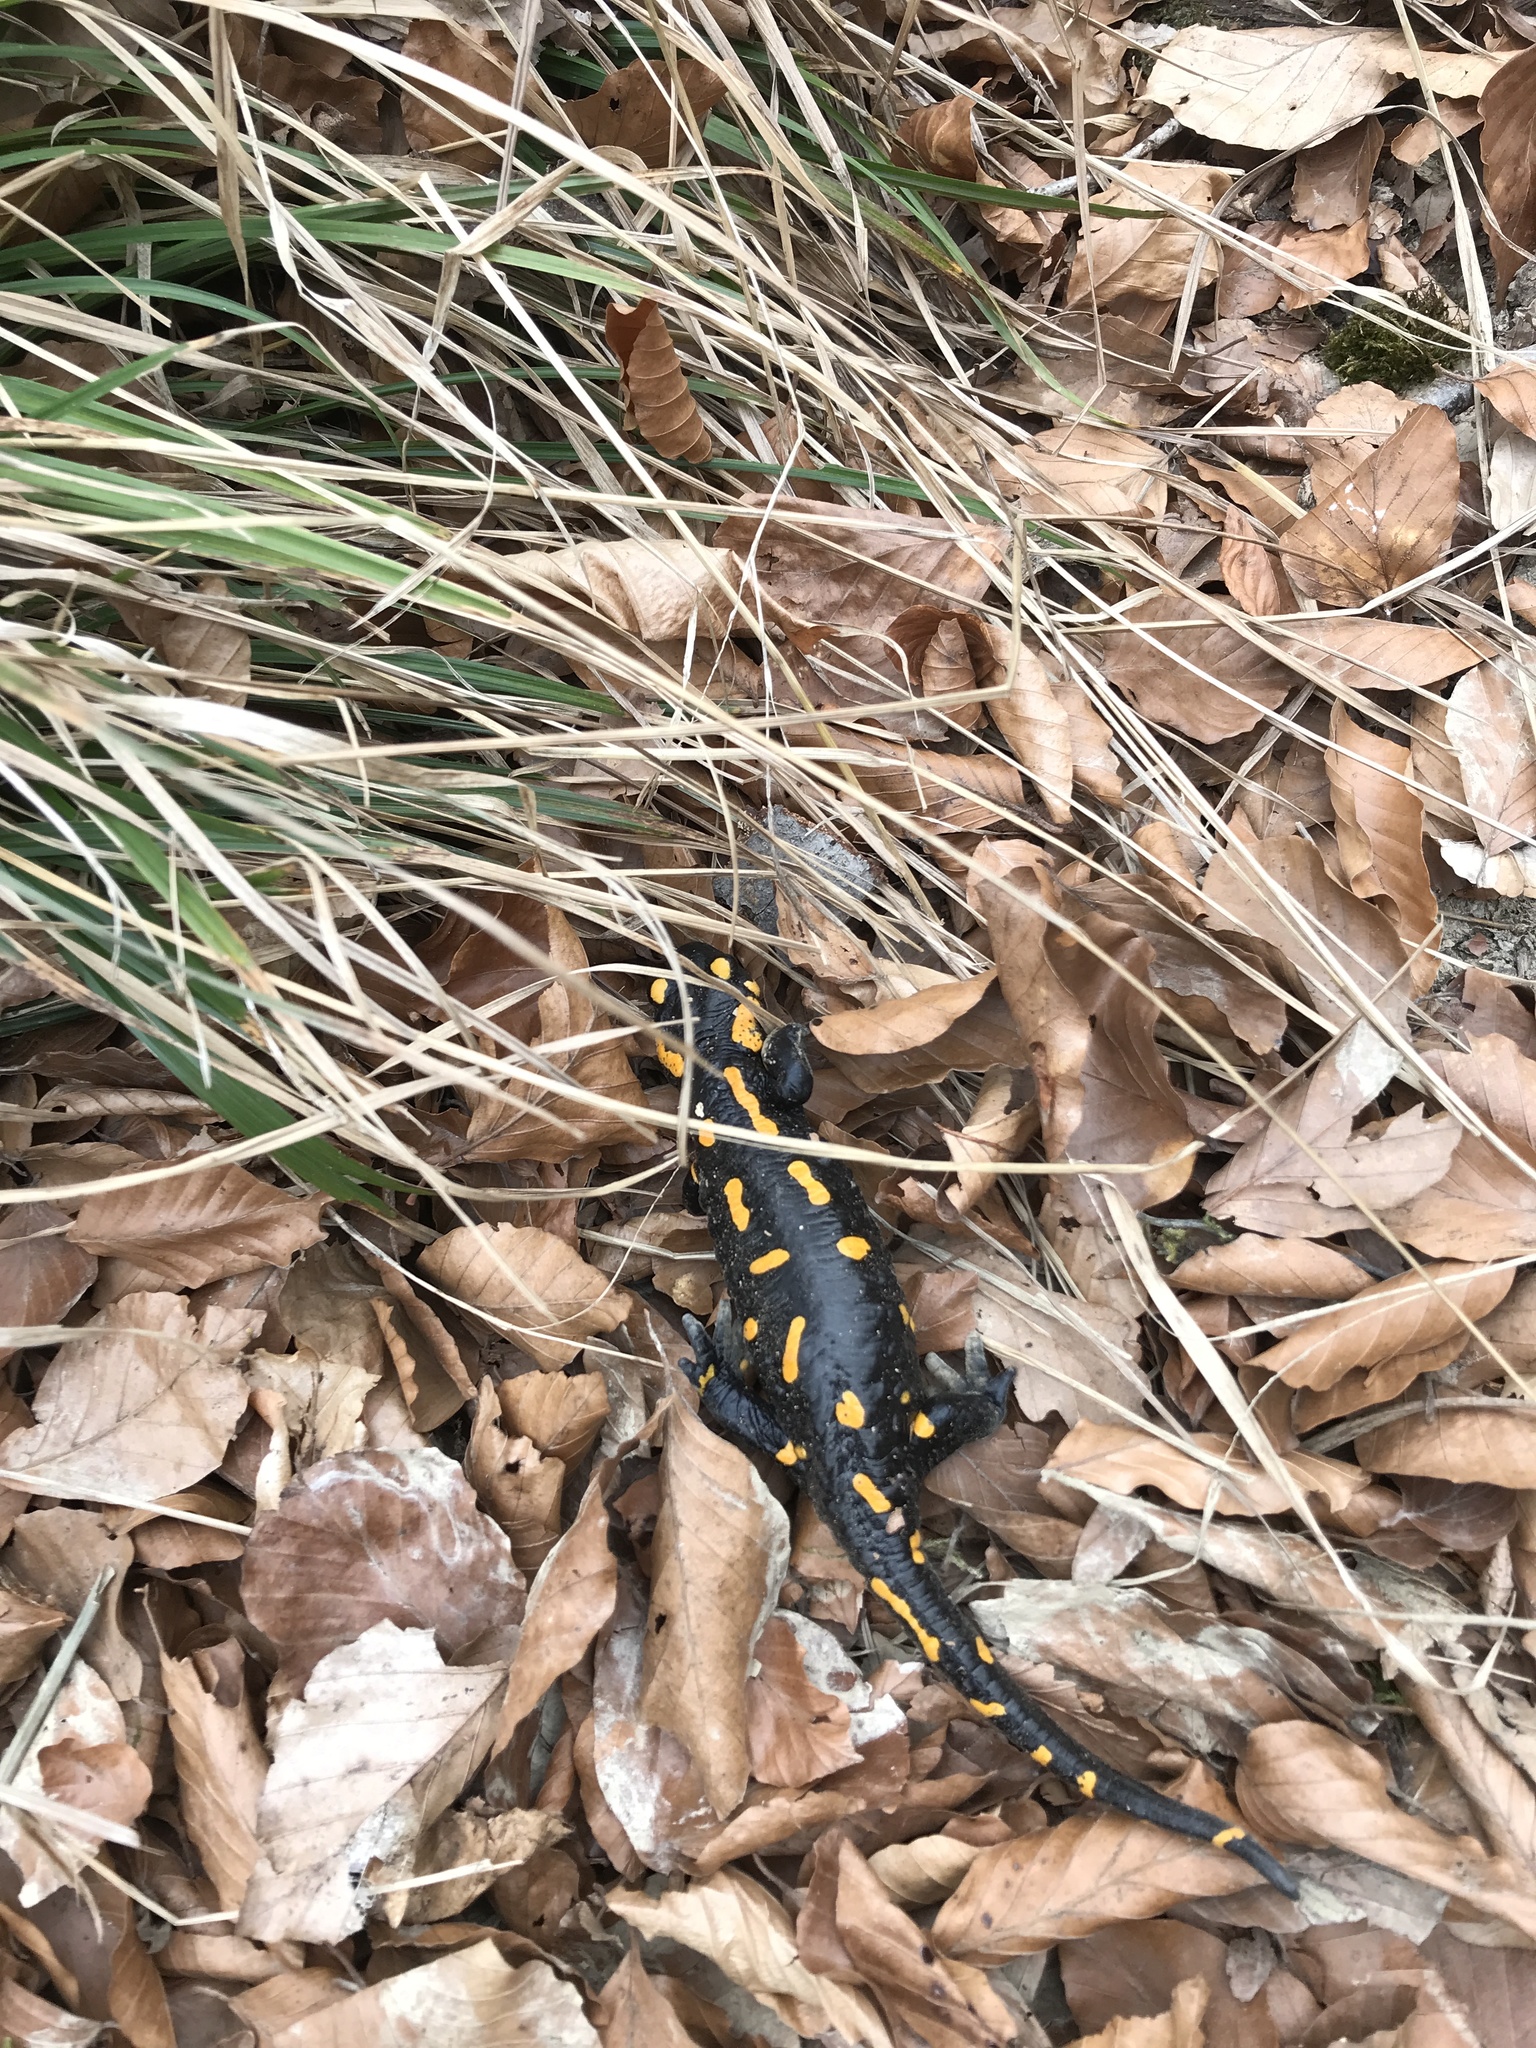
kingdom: Animalia
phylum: Chordata
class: Amphibia
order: Caudata
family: Salamandridae
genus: Salamandra
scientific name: Salamandra salamandra
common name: Fire salamander
